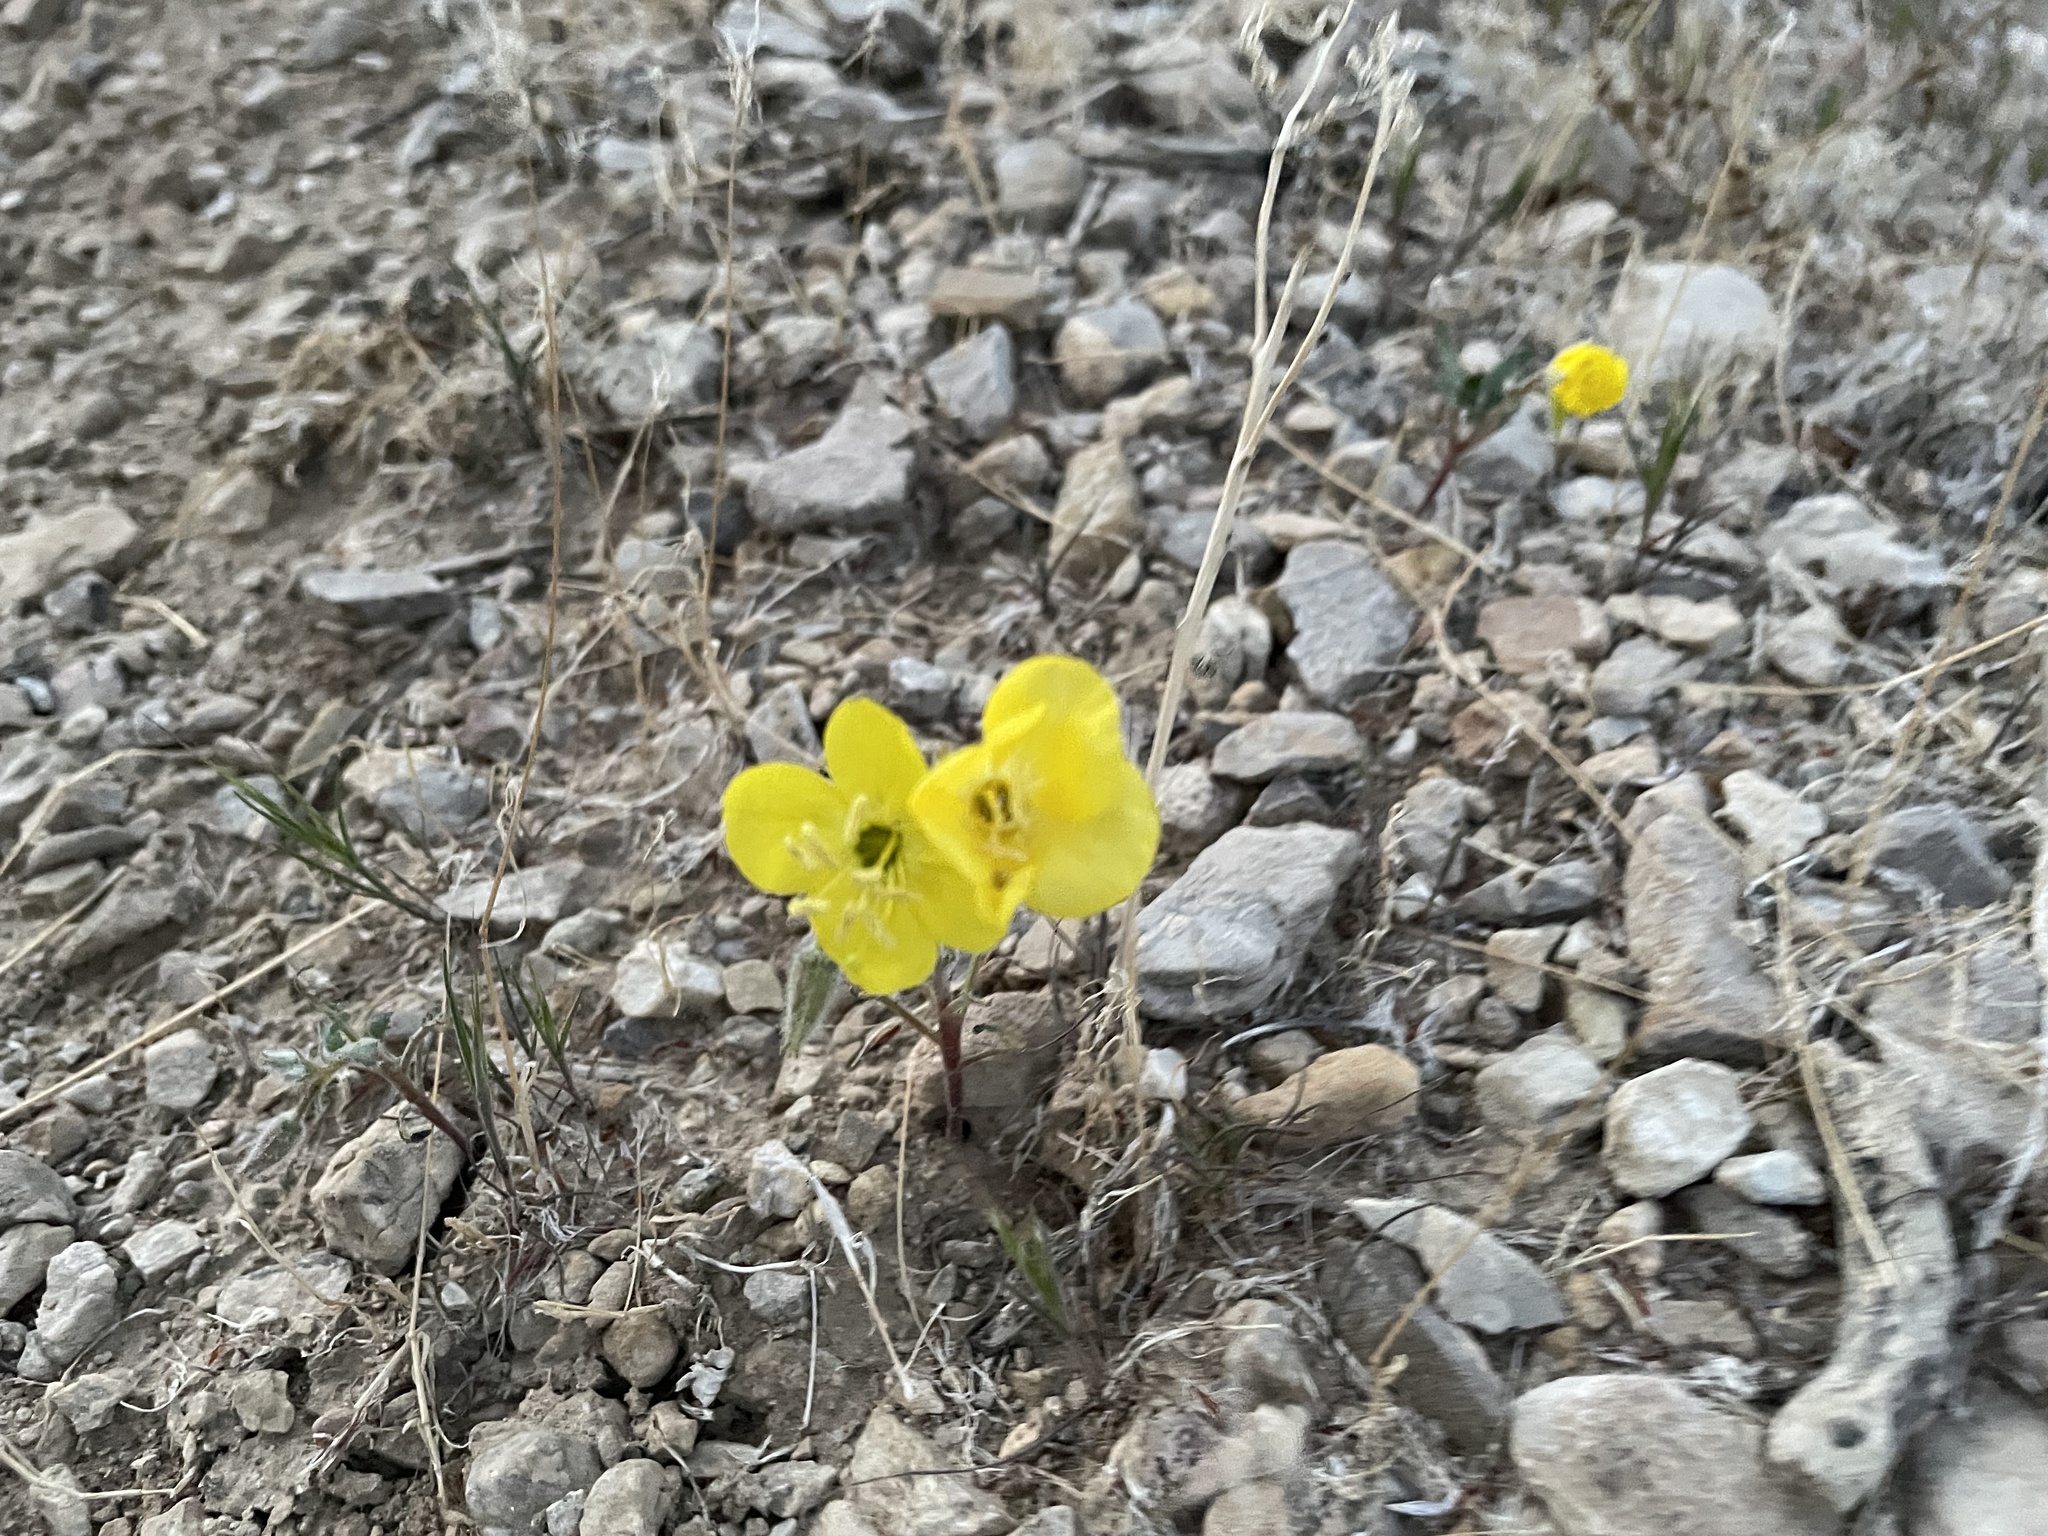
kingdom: Plantae
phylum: Tracheophyta
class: Magnoliopsida
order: Myrtales
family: Onagraceae
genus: Chylismia
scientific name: Chylismia brevipes
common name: Yellow cups
